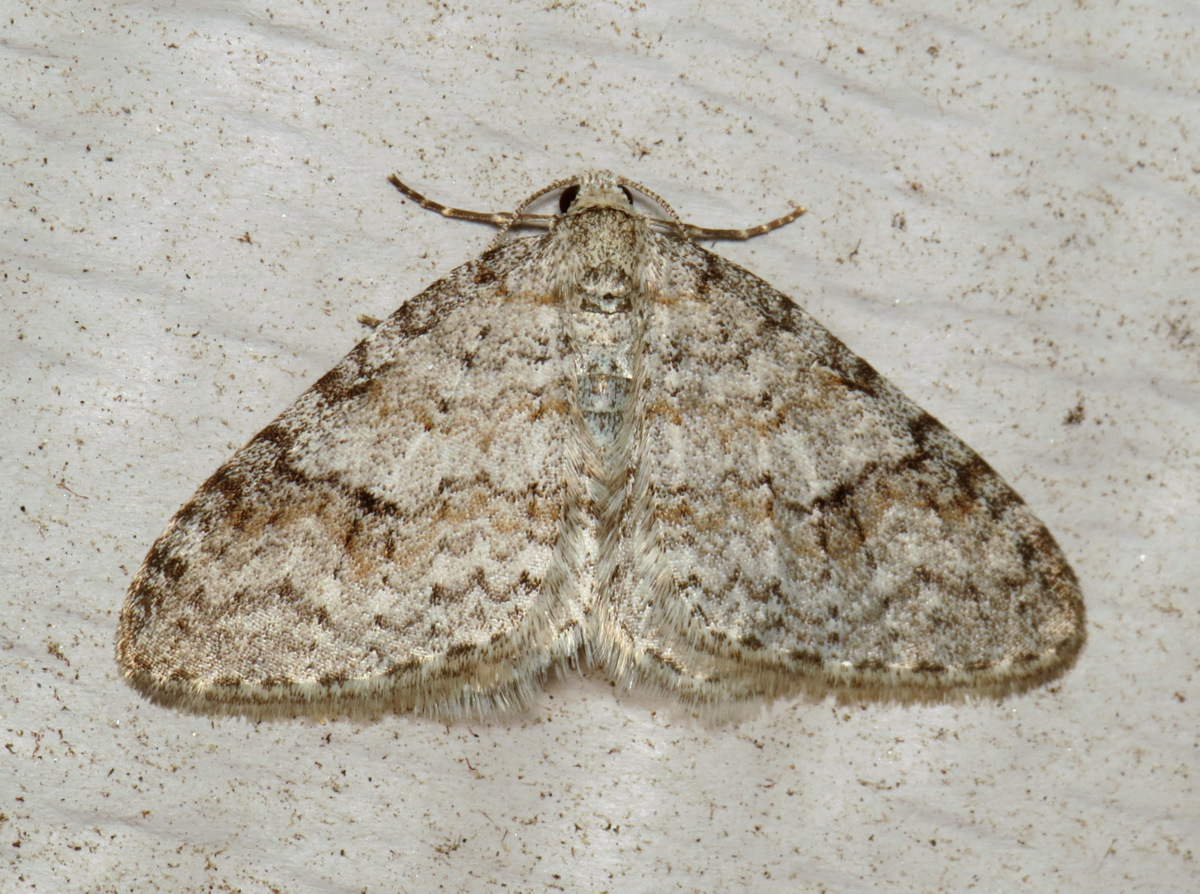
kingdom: Animalia
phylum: Arthropoda
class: Insecta
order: Lepidoptera
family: Geometridae
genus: Venusia
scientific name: Venusia comptaria
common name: Brown-shaded carpet
